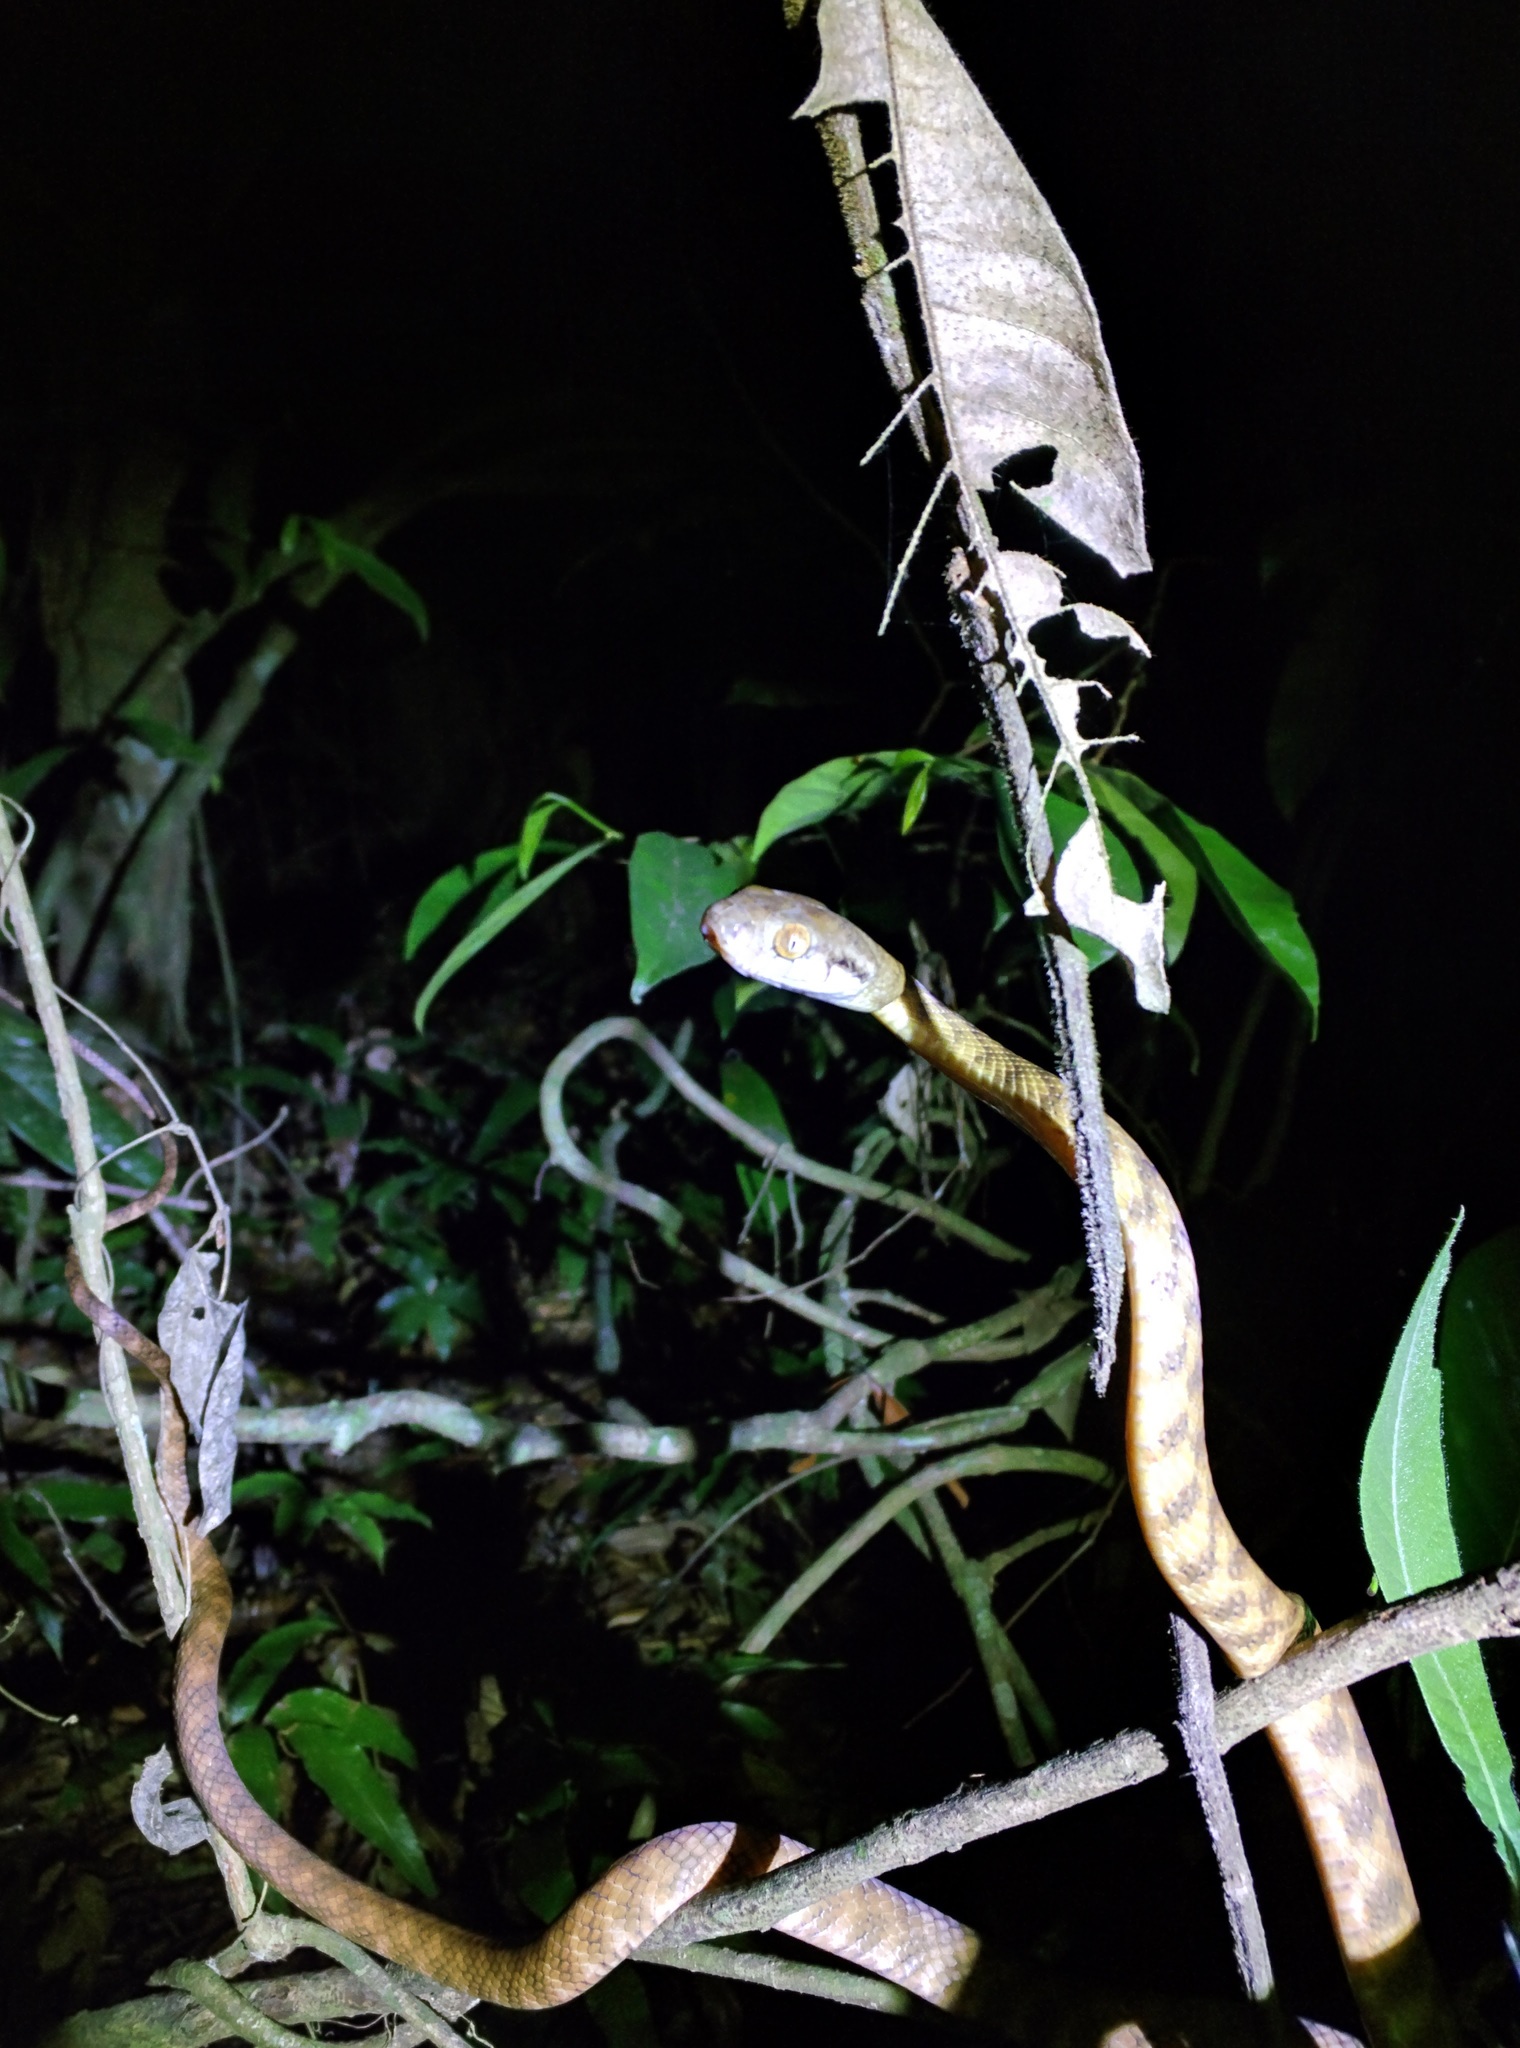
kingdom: Animalia
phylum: Chordata
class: Squamata
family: Colubridae
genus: Boiga
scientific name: Boiga irregularis
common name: Brown tree snake
